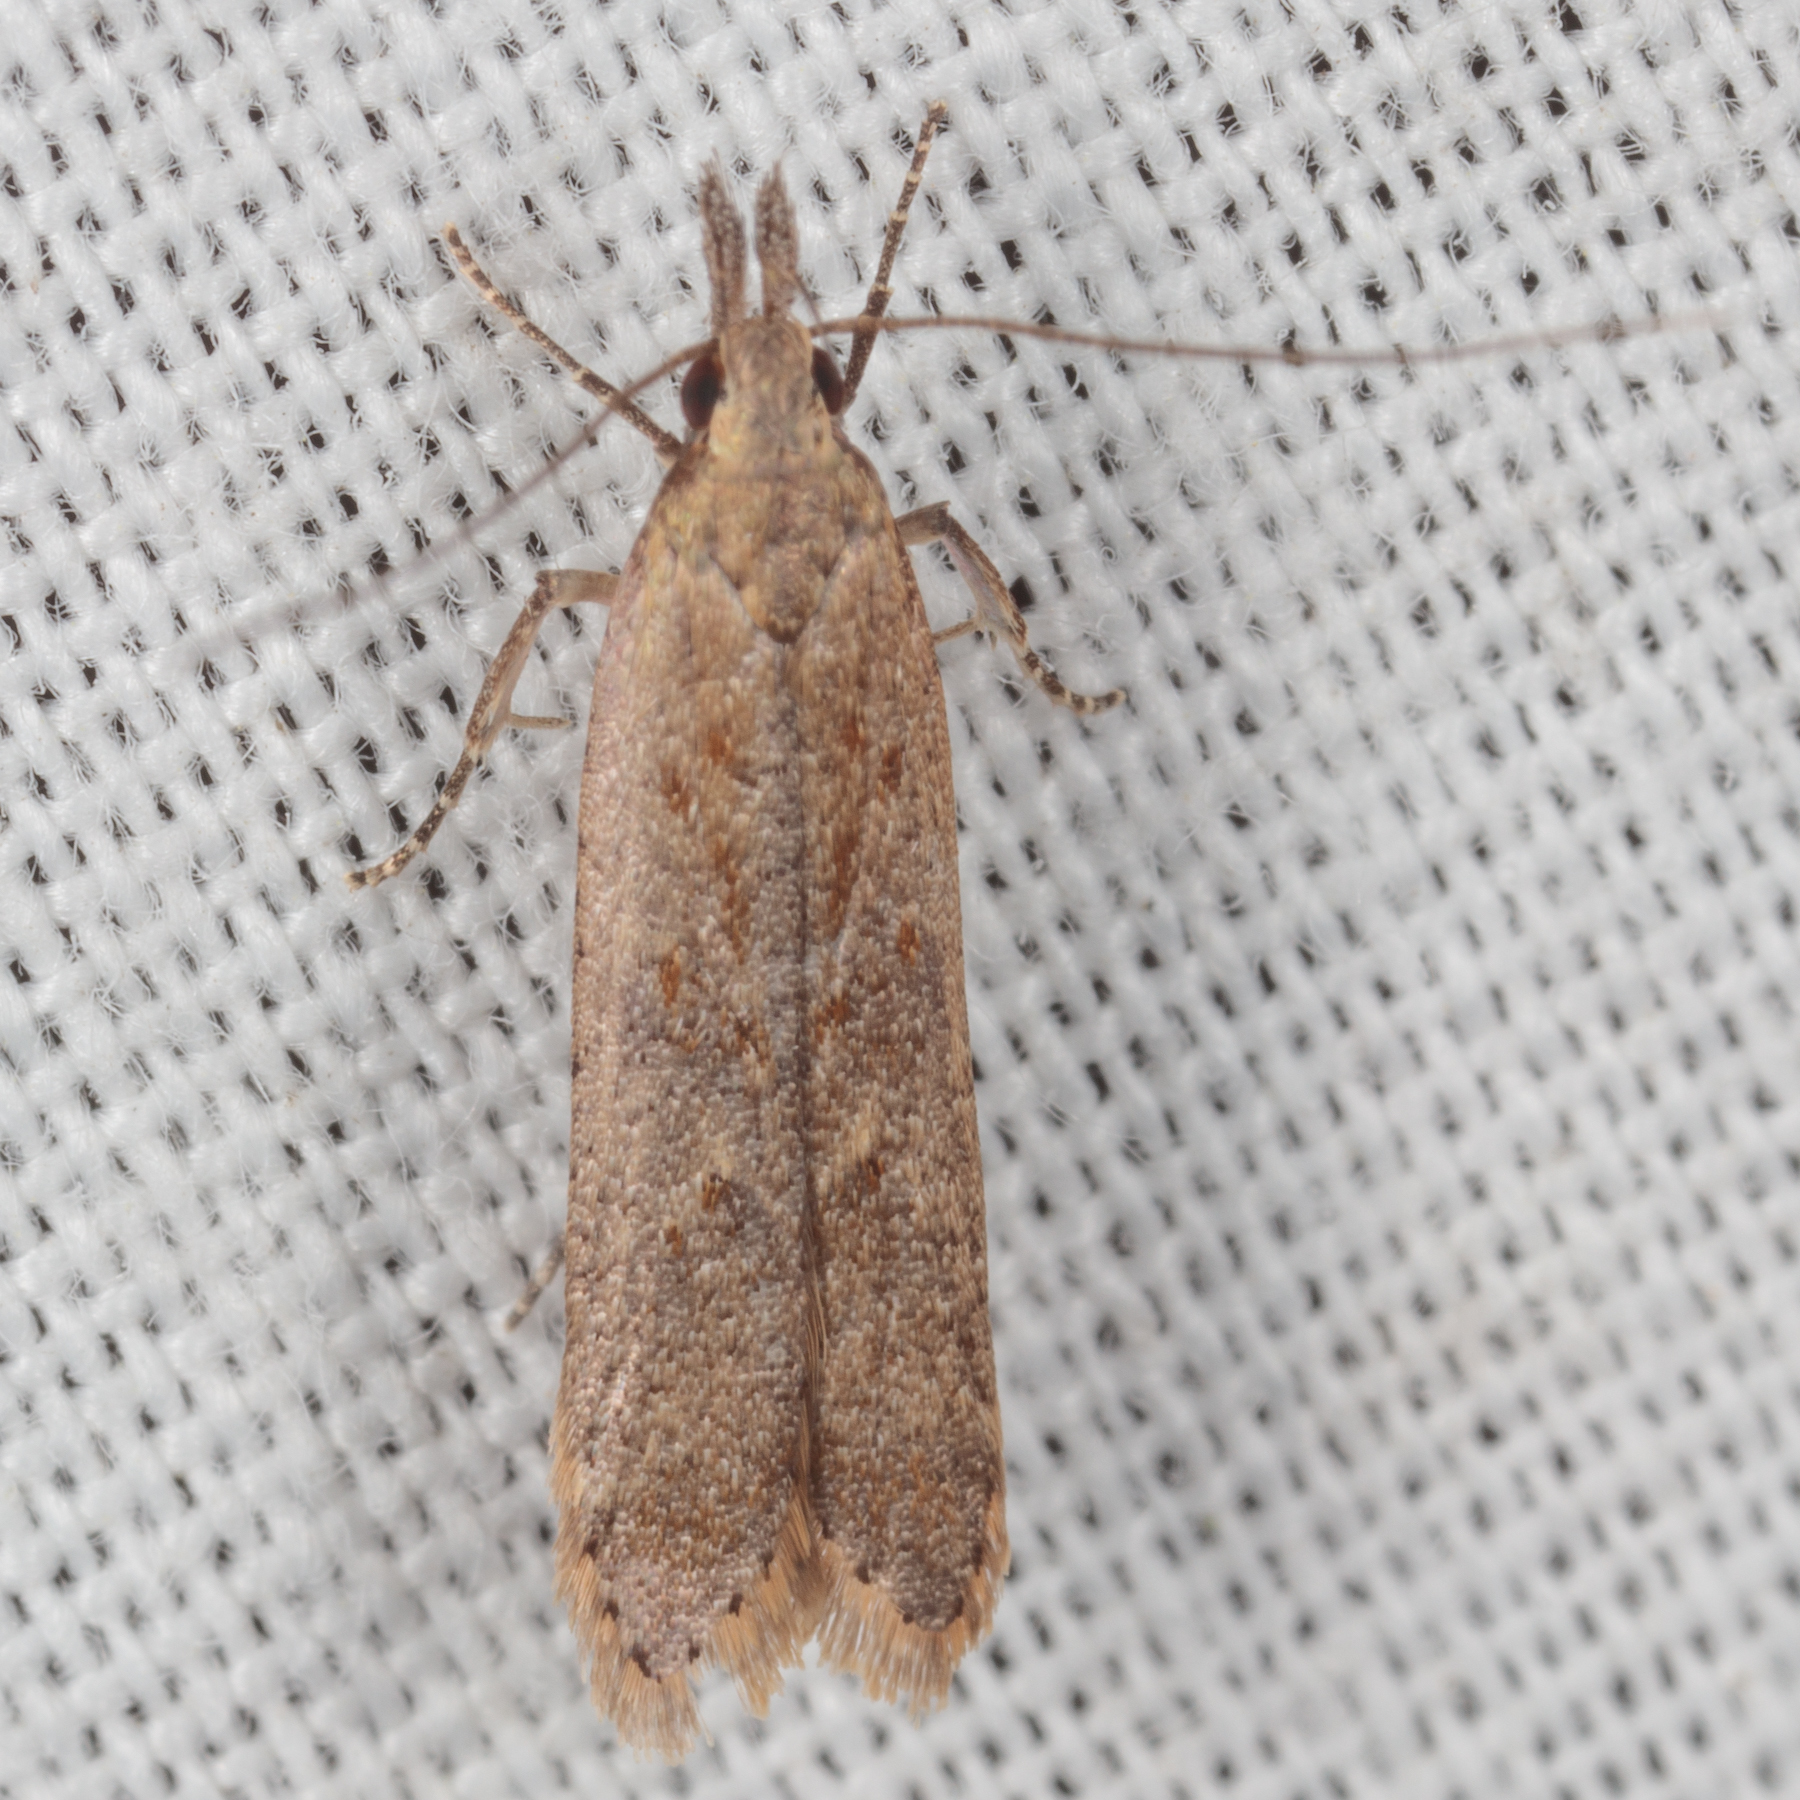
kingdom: Animalia
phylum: Arthropoda
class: Insecta
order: Lepidoptera
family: Gelechiidae
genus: Dichomeris
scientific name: Dichomeris ligulella
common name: Moth
